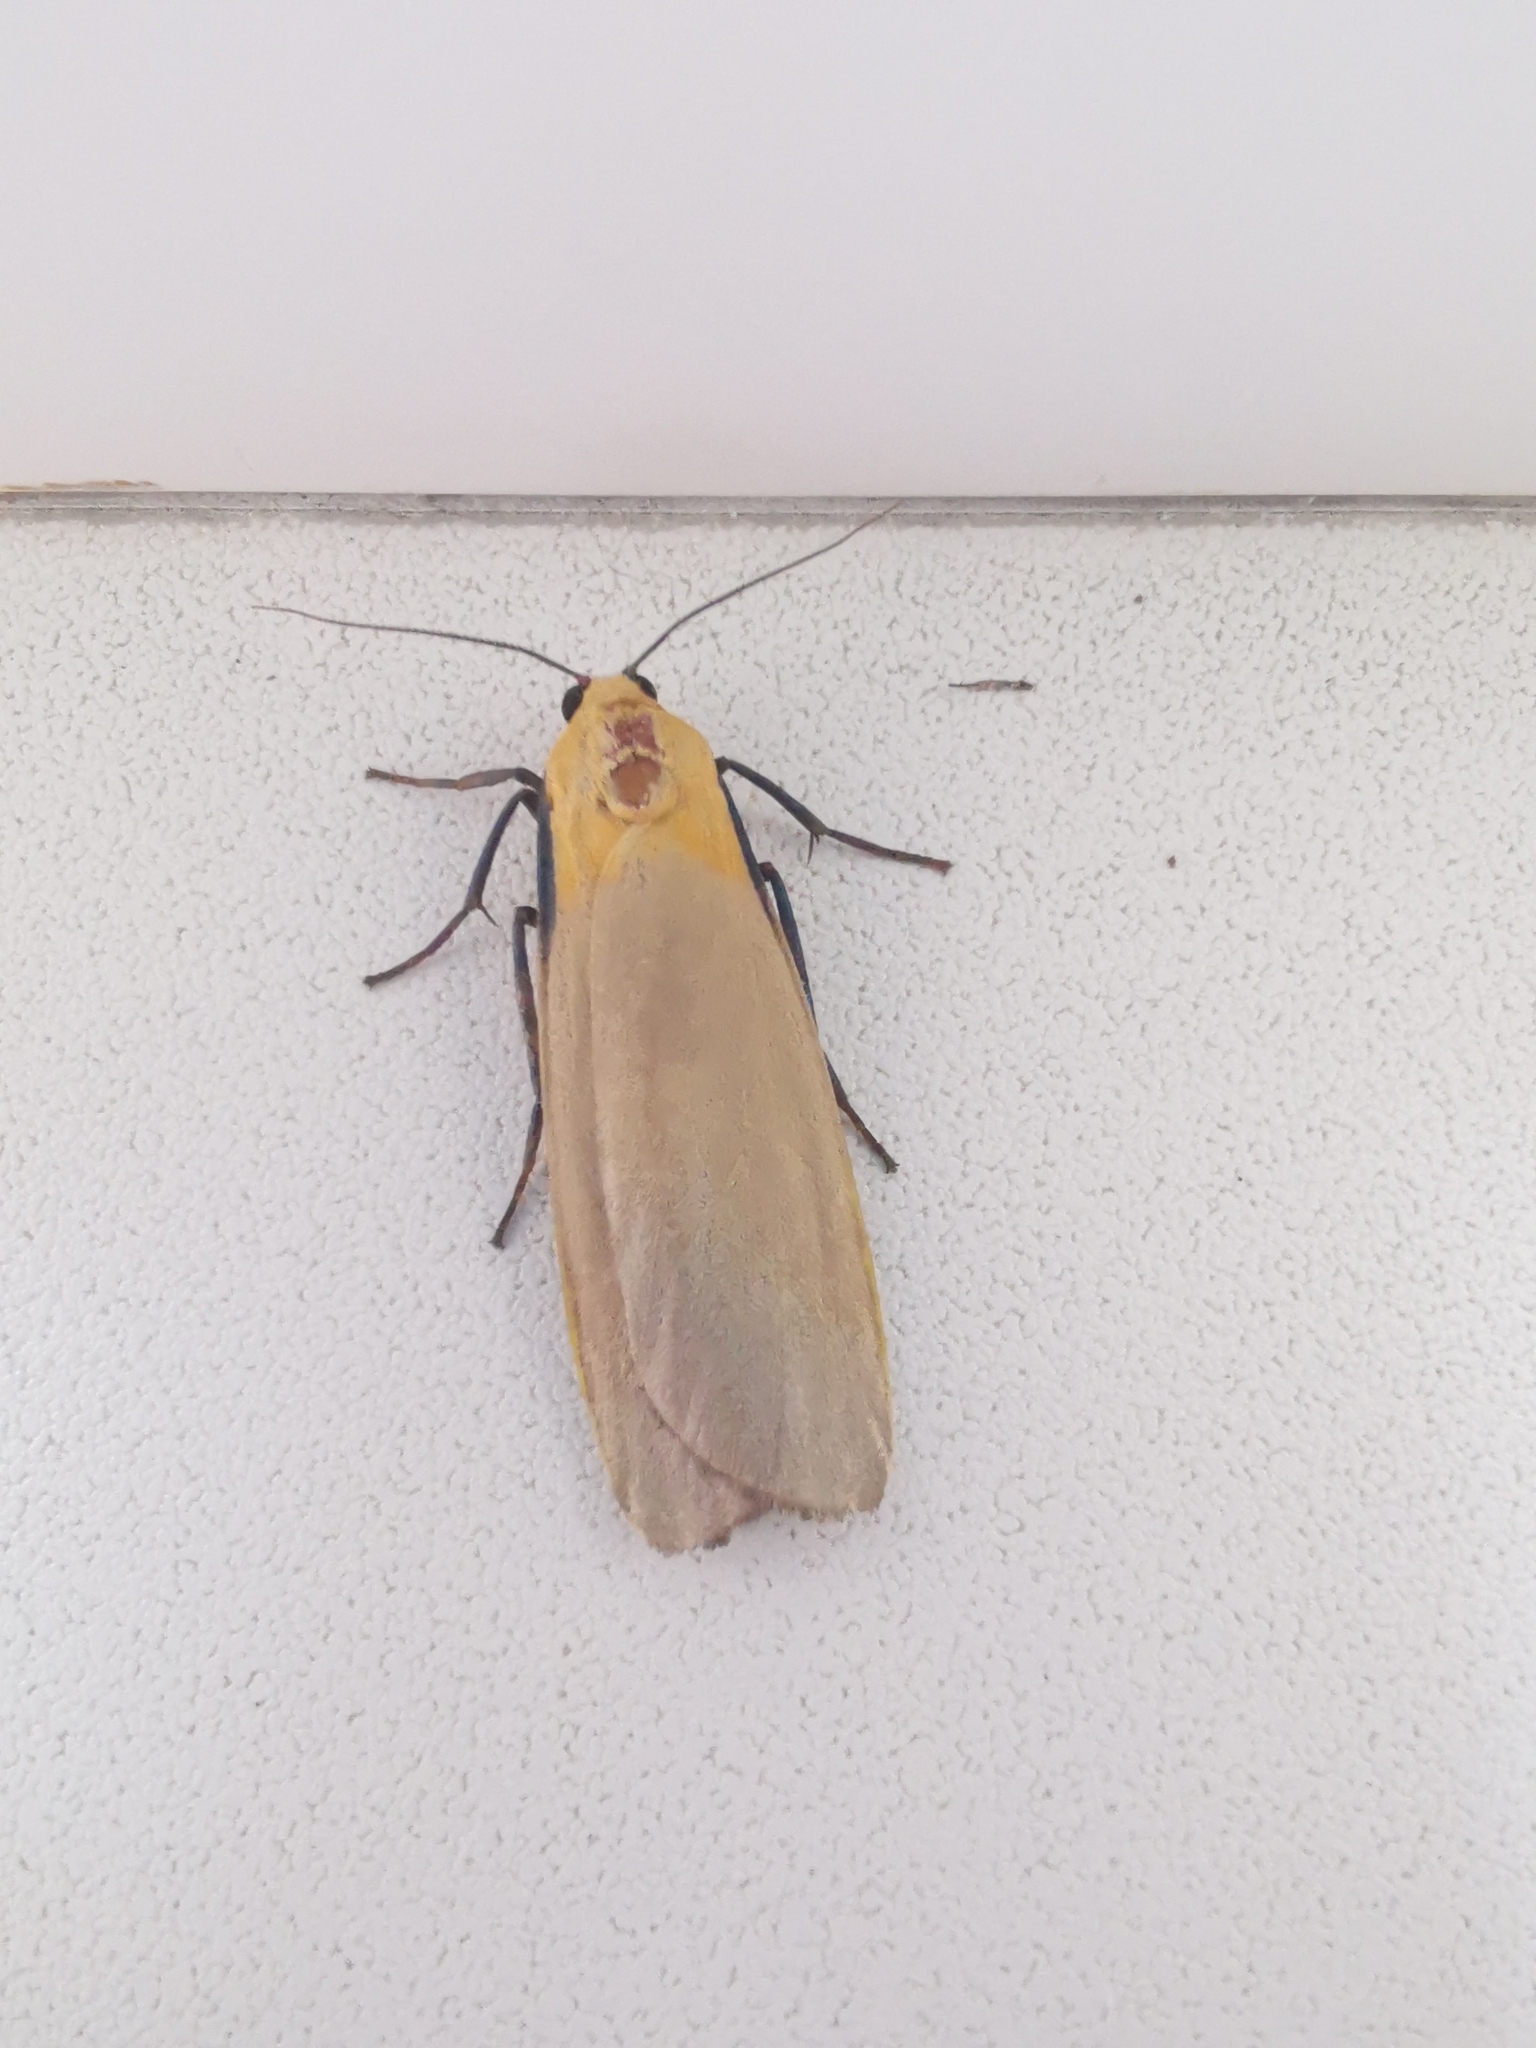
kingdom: Animalia
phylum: Arthropoda
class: Insecta
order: Lepidoptera
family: Erebidae
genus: Lithosia
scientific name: Lithosia quadra
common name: Four-spotted footman
